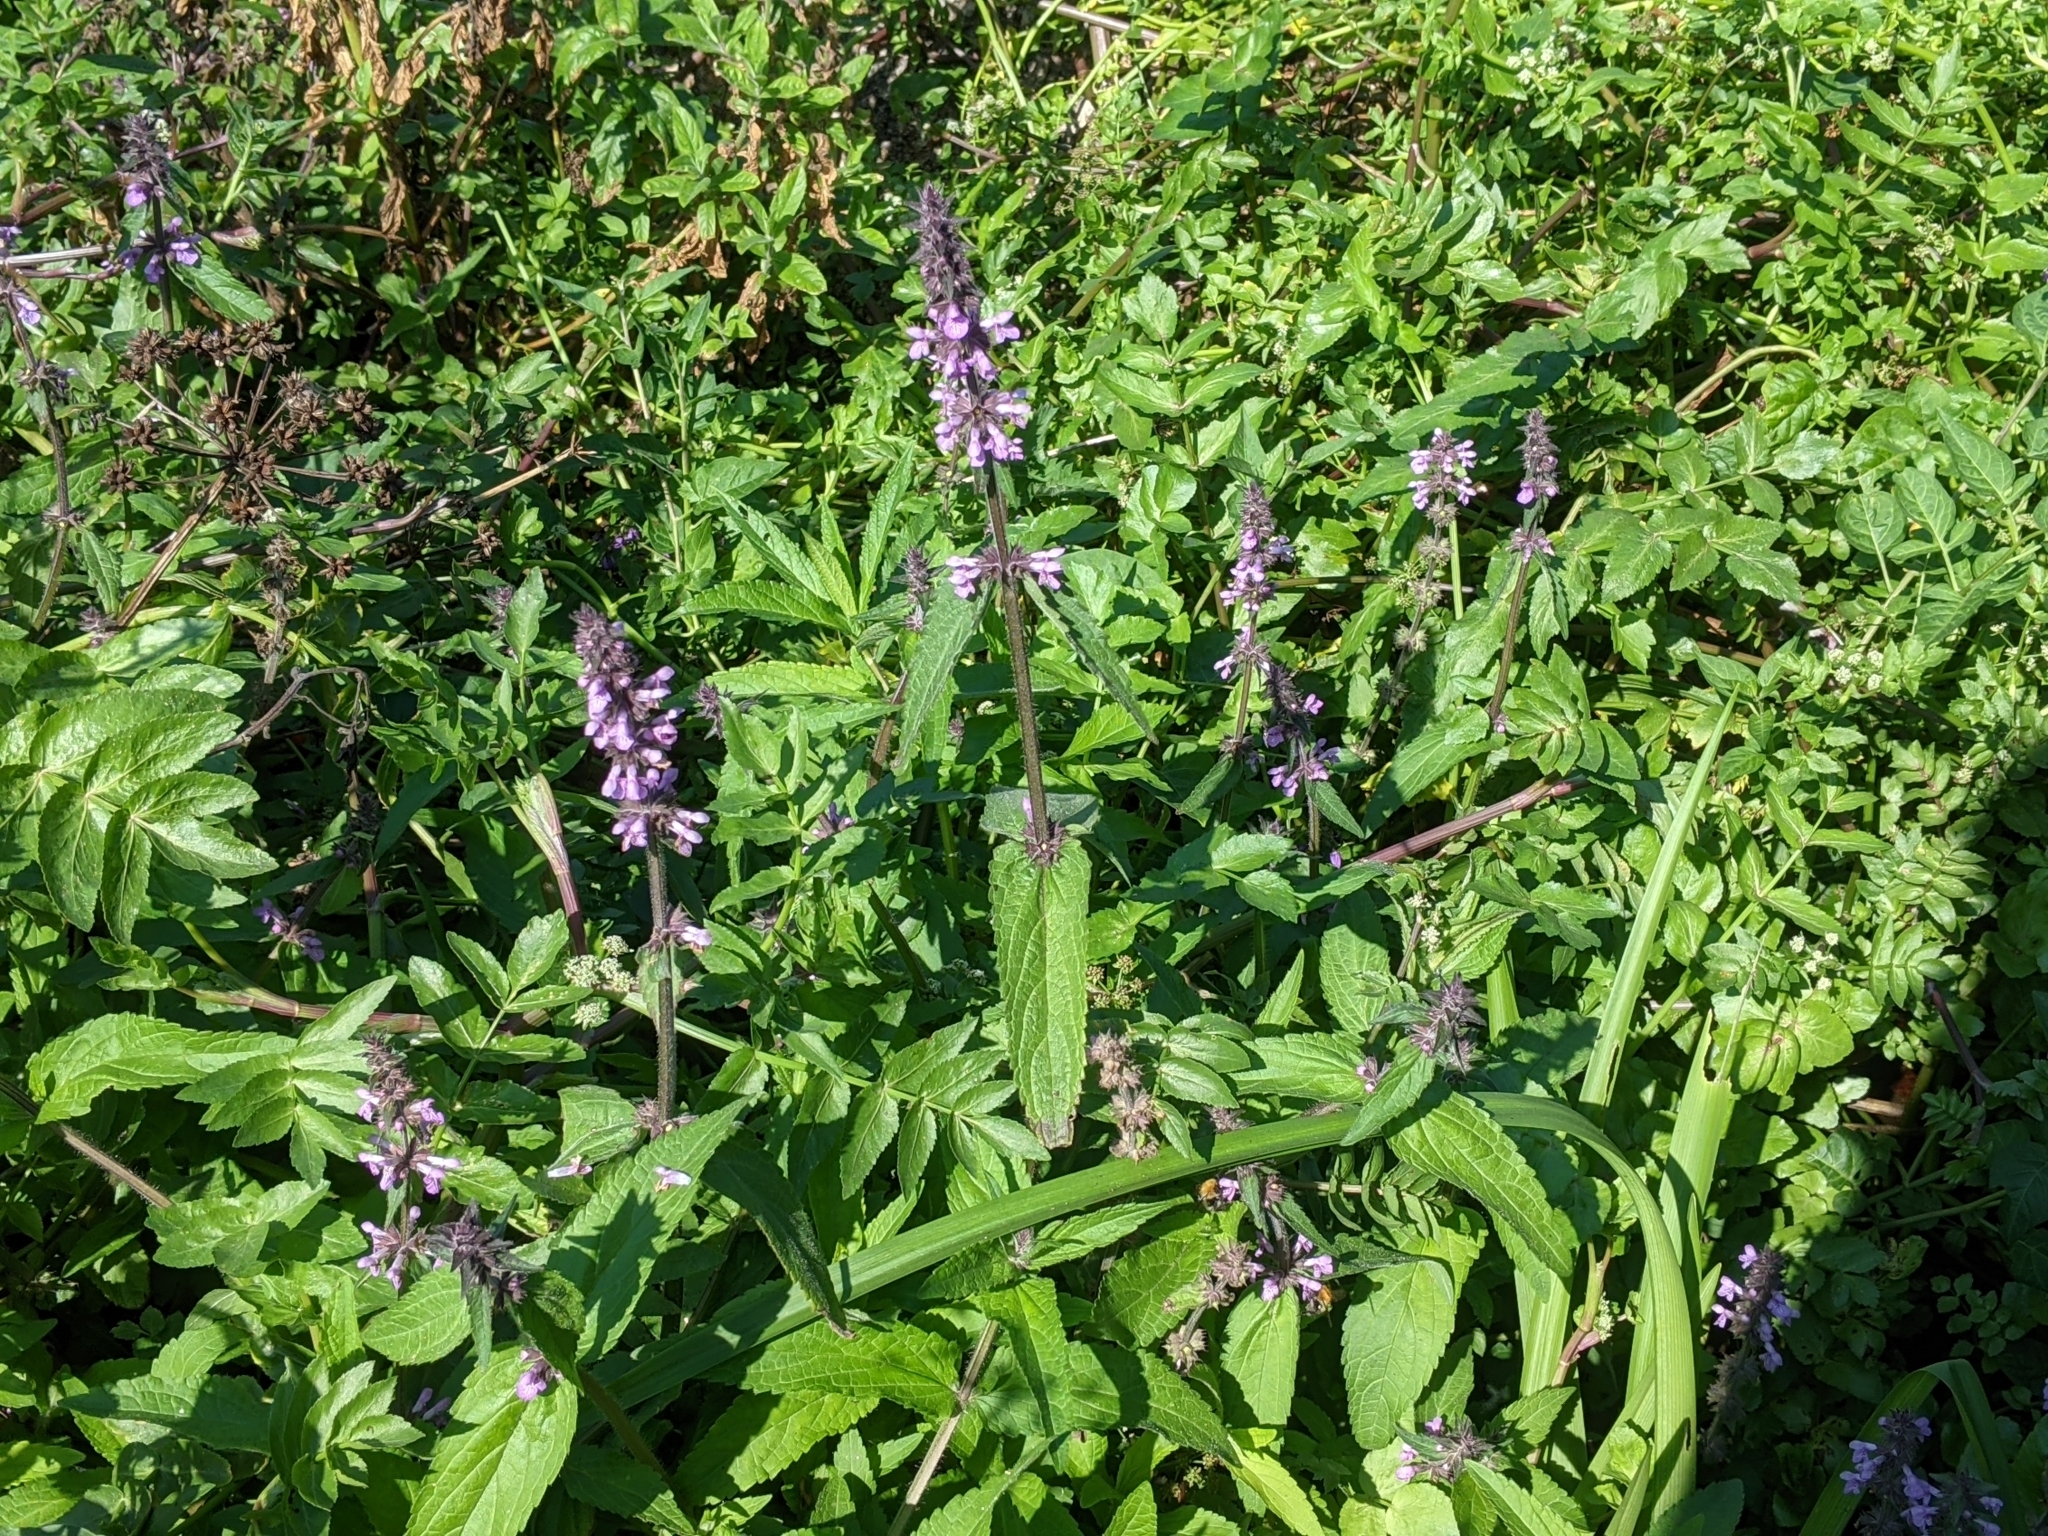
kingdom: Plantae
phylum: Tracheophyta
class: Magnoliopsida
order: Lamiales
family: Lamiaceae
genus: Stachys
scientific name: Stachys palustris
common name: Marsh woundwort
